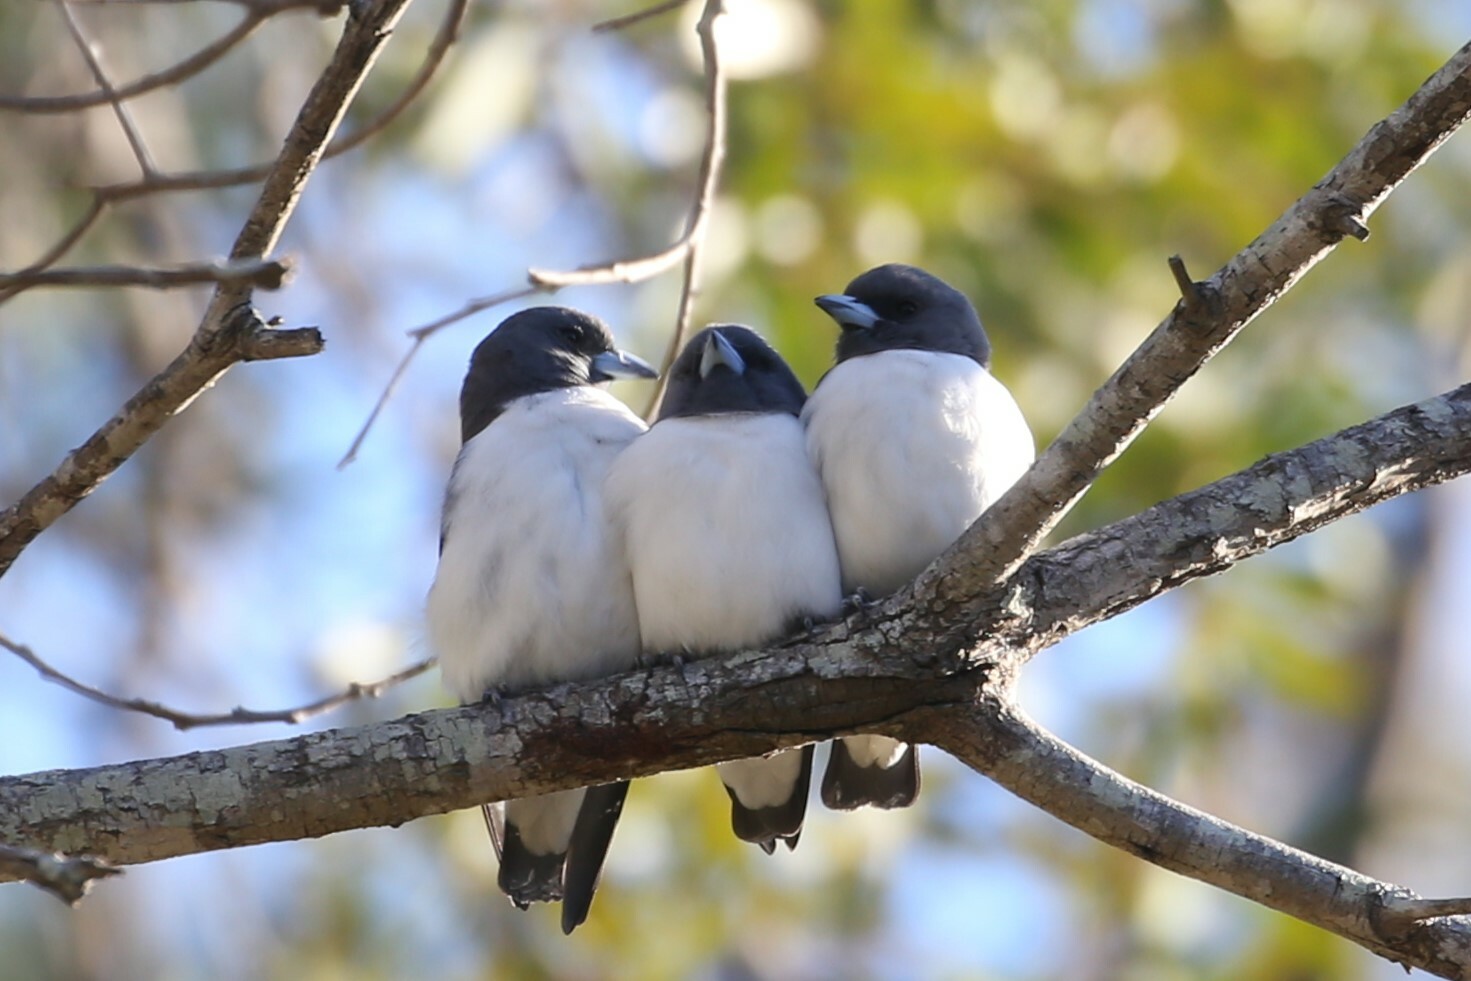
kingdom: Animalia
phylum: Chordata
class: Aves
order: Passeriformes
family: Artamidae
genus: Artamus
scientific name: Artamus leucoryn
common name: White-breasted woodswallow
